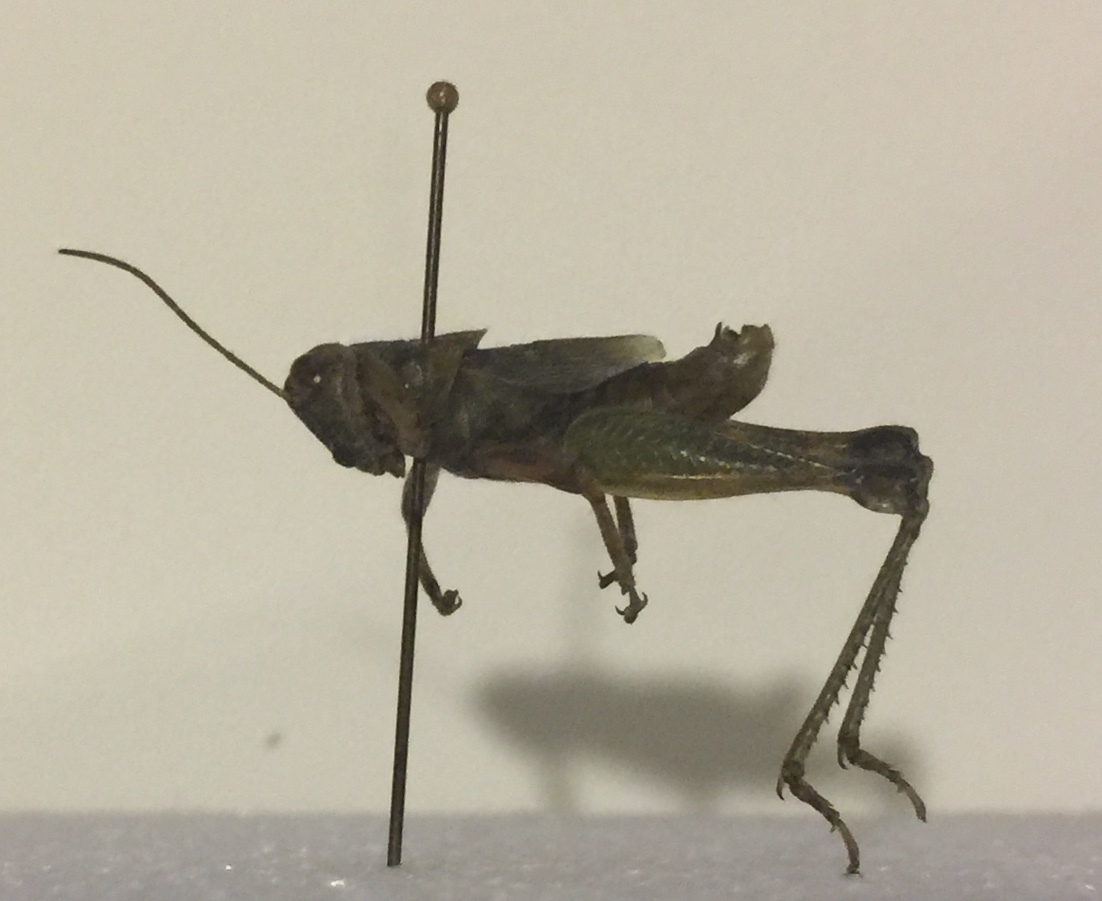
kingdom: Animalia
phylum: Arthropoda
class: Insecta
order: Orthoptera
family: Acrididae
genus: Campylacantha
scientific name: Campylacantha olivacea
